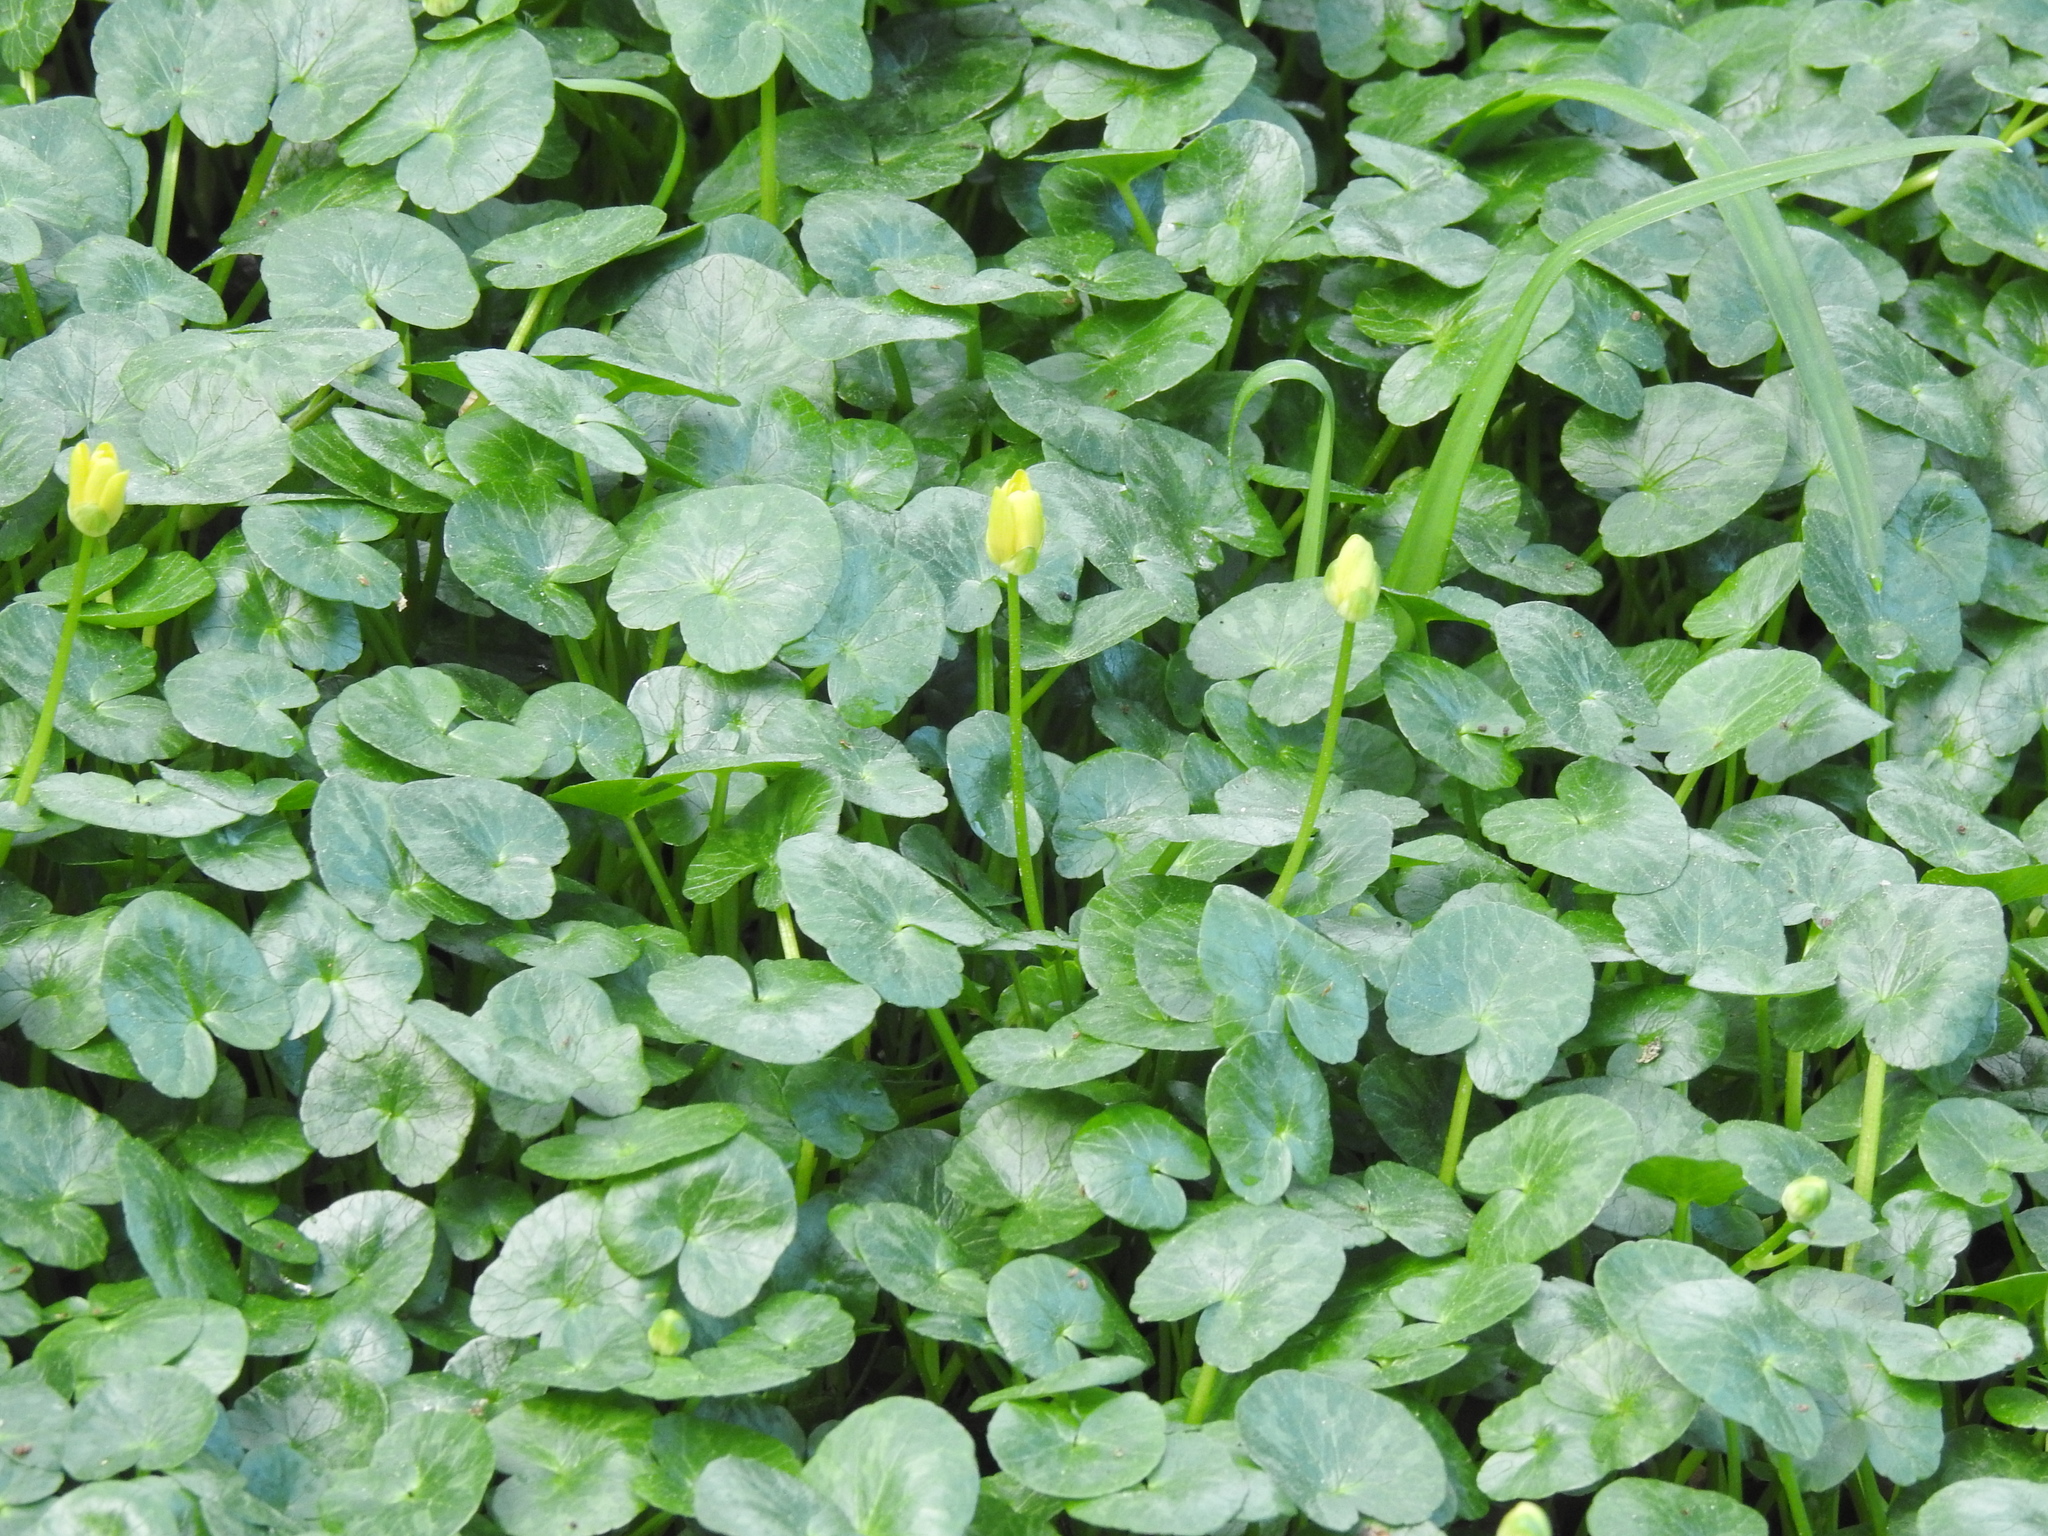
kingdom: Plantae
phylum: Tracheophyta
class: Magnoliopsida
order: Ranunculales
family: Ranunculaceae
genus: Ficaria
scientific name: Ficaria verna
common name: Lesser celandine
